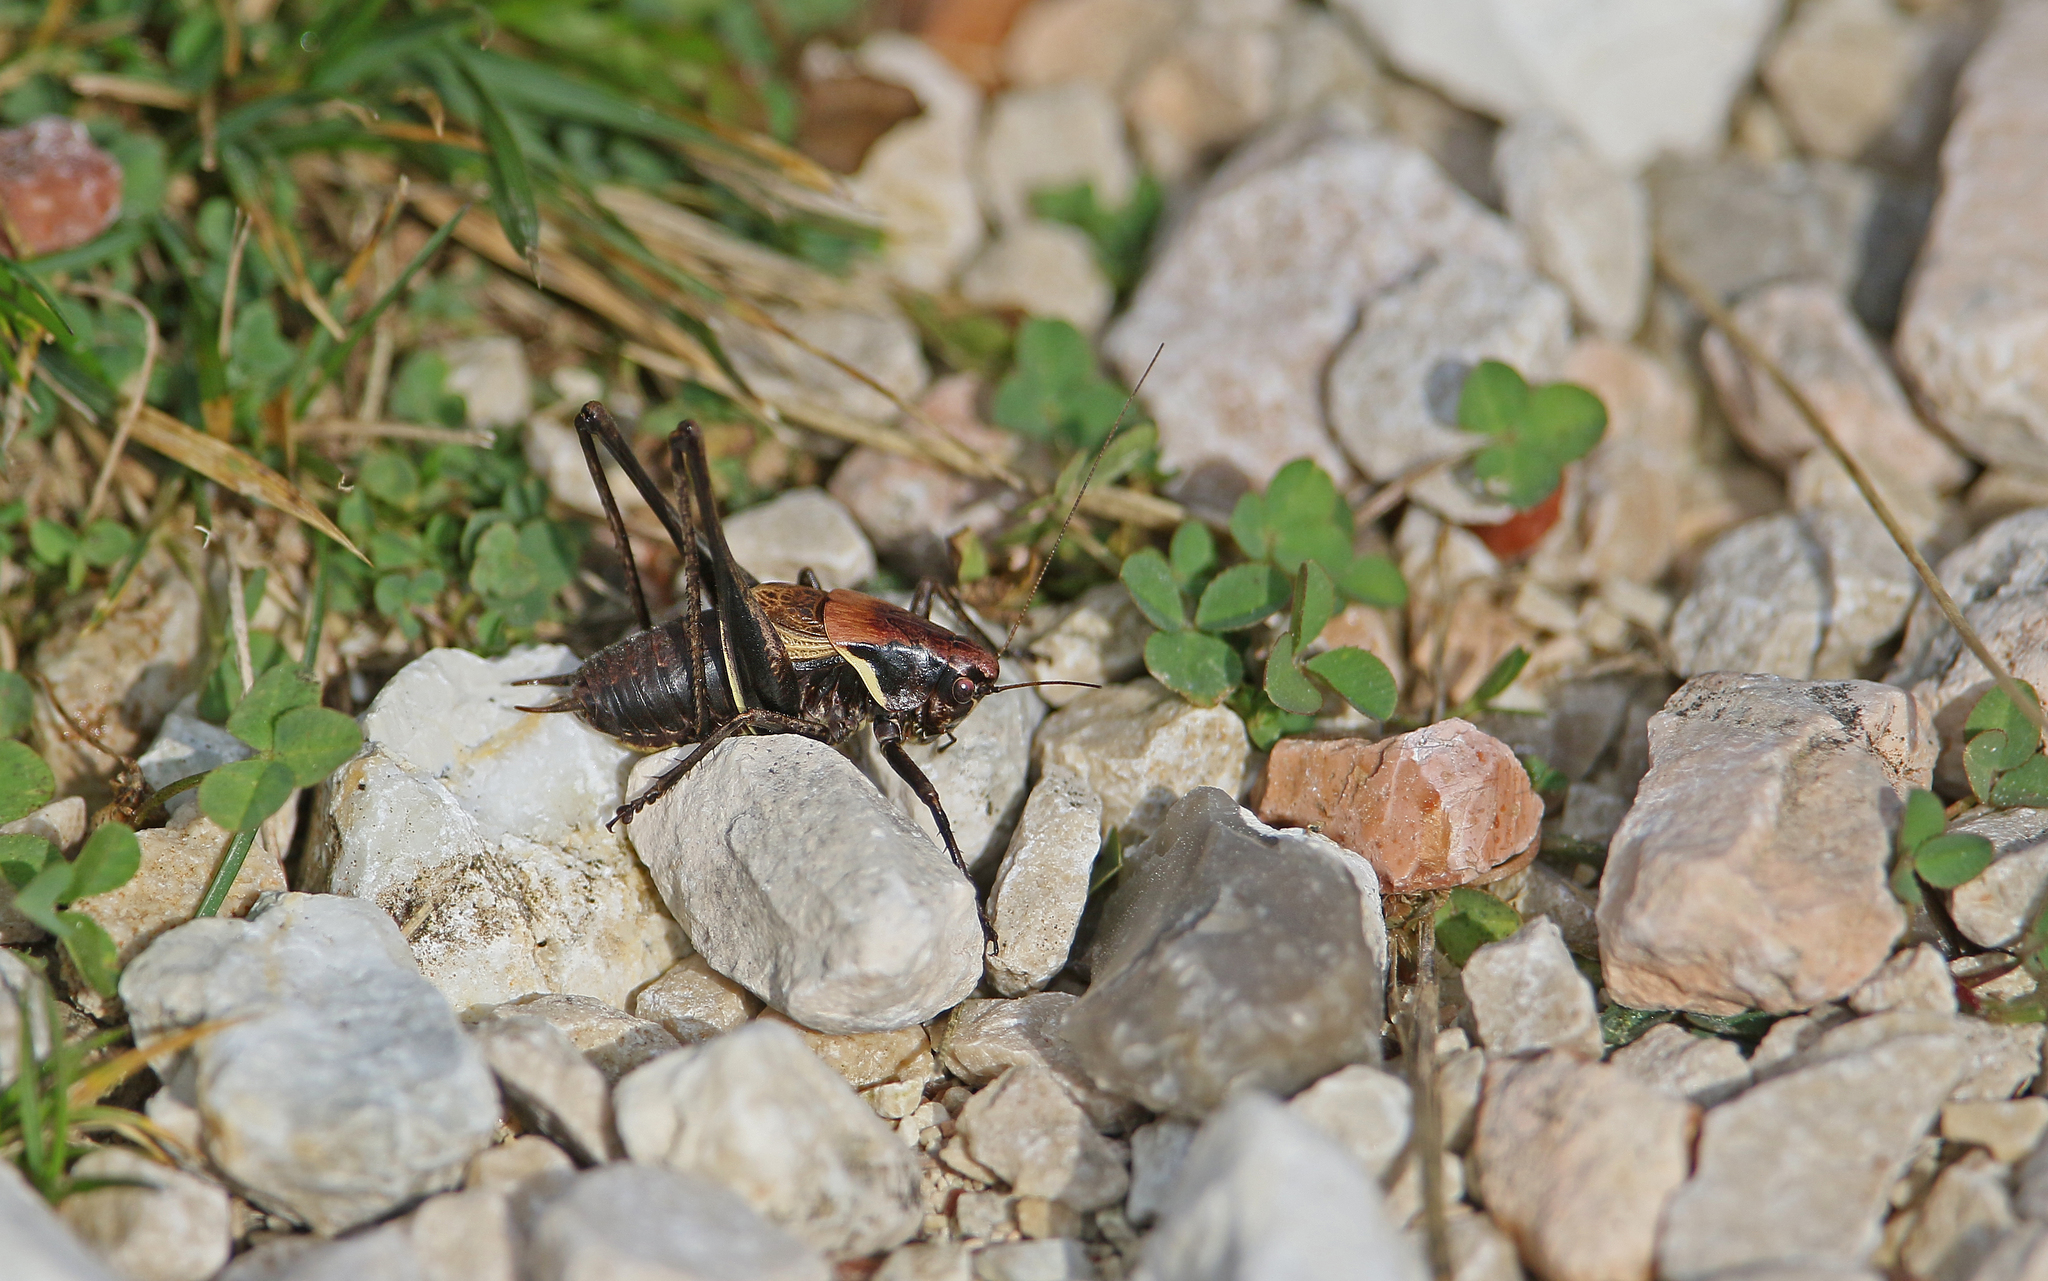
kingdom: Animalia
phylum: Arthropoda
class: Insecta
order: Orthoptera
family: Tettigoniidae
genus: Pholidoptera
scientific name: Pholidoptera aptera
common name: Alpine dark bush-cricket
